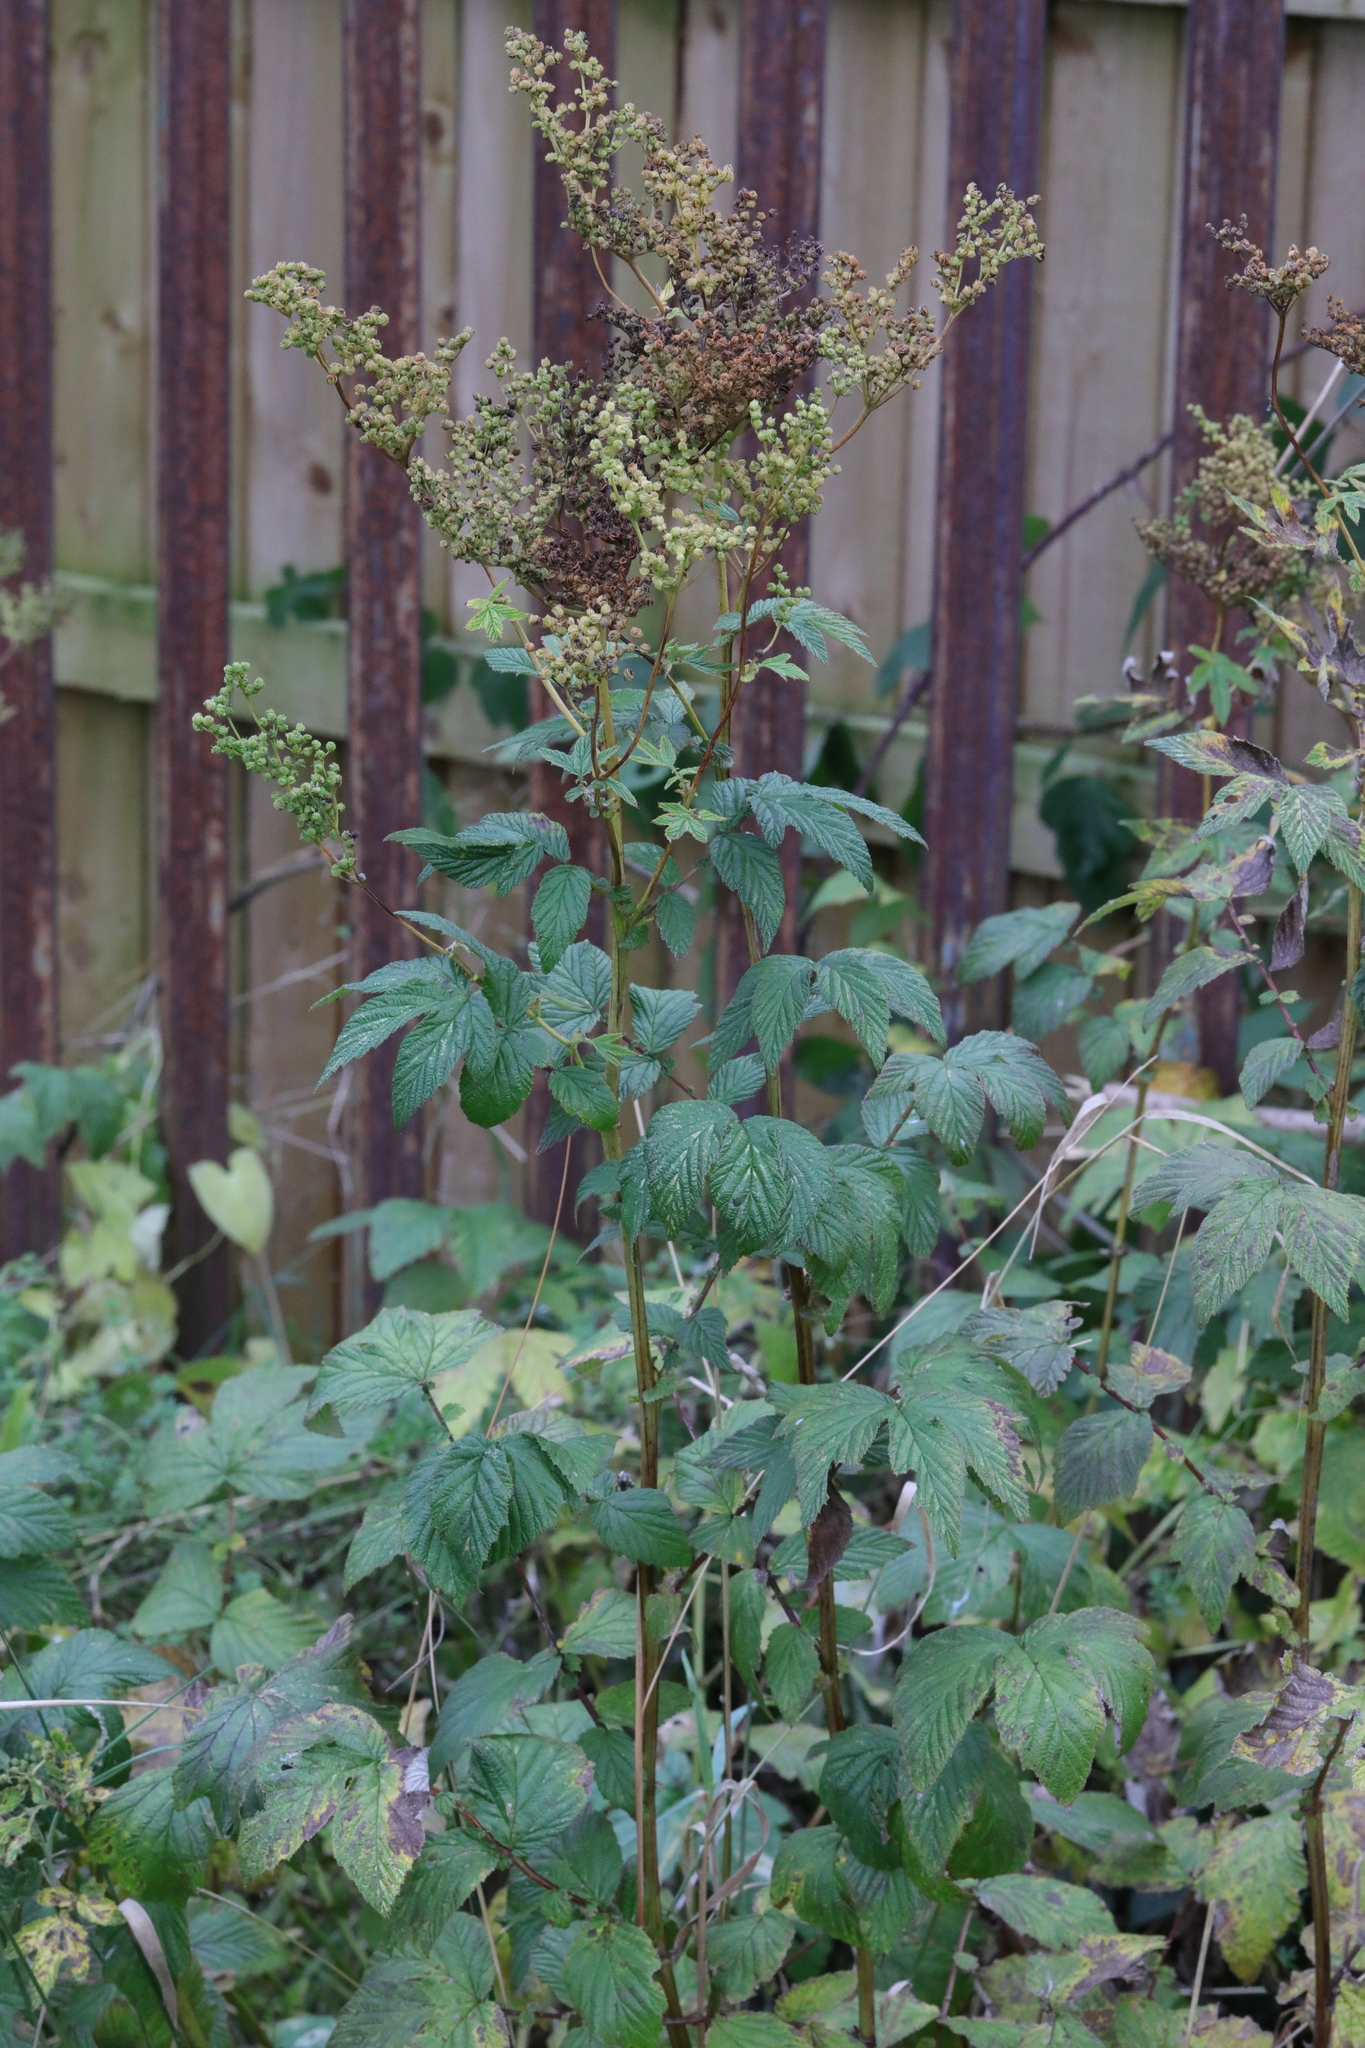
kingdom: Plantae
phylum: Tracheophyta
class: Magnoliopsida
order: Rosales
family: Rosaceae
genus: Filipendula
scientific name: Filipendula ulmaria
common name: Meadowsweet
